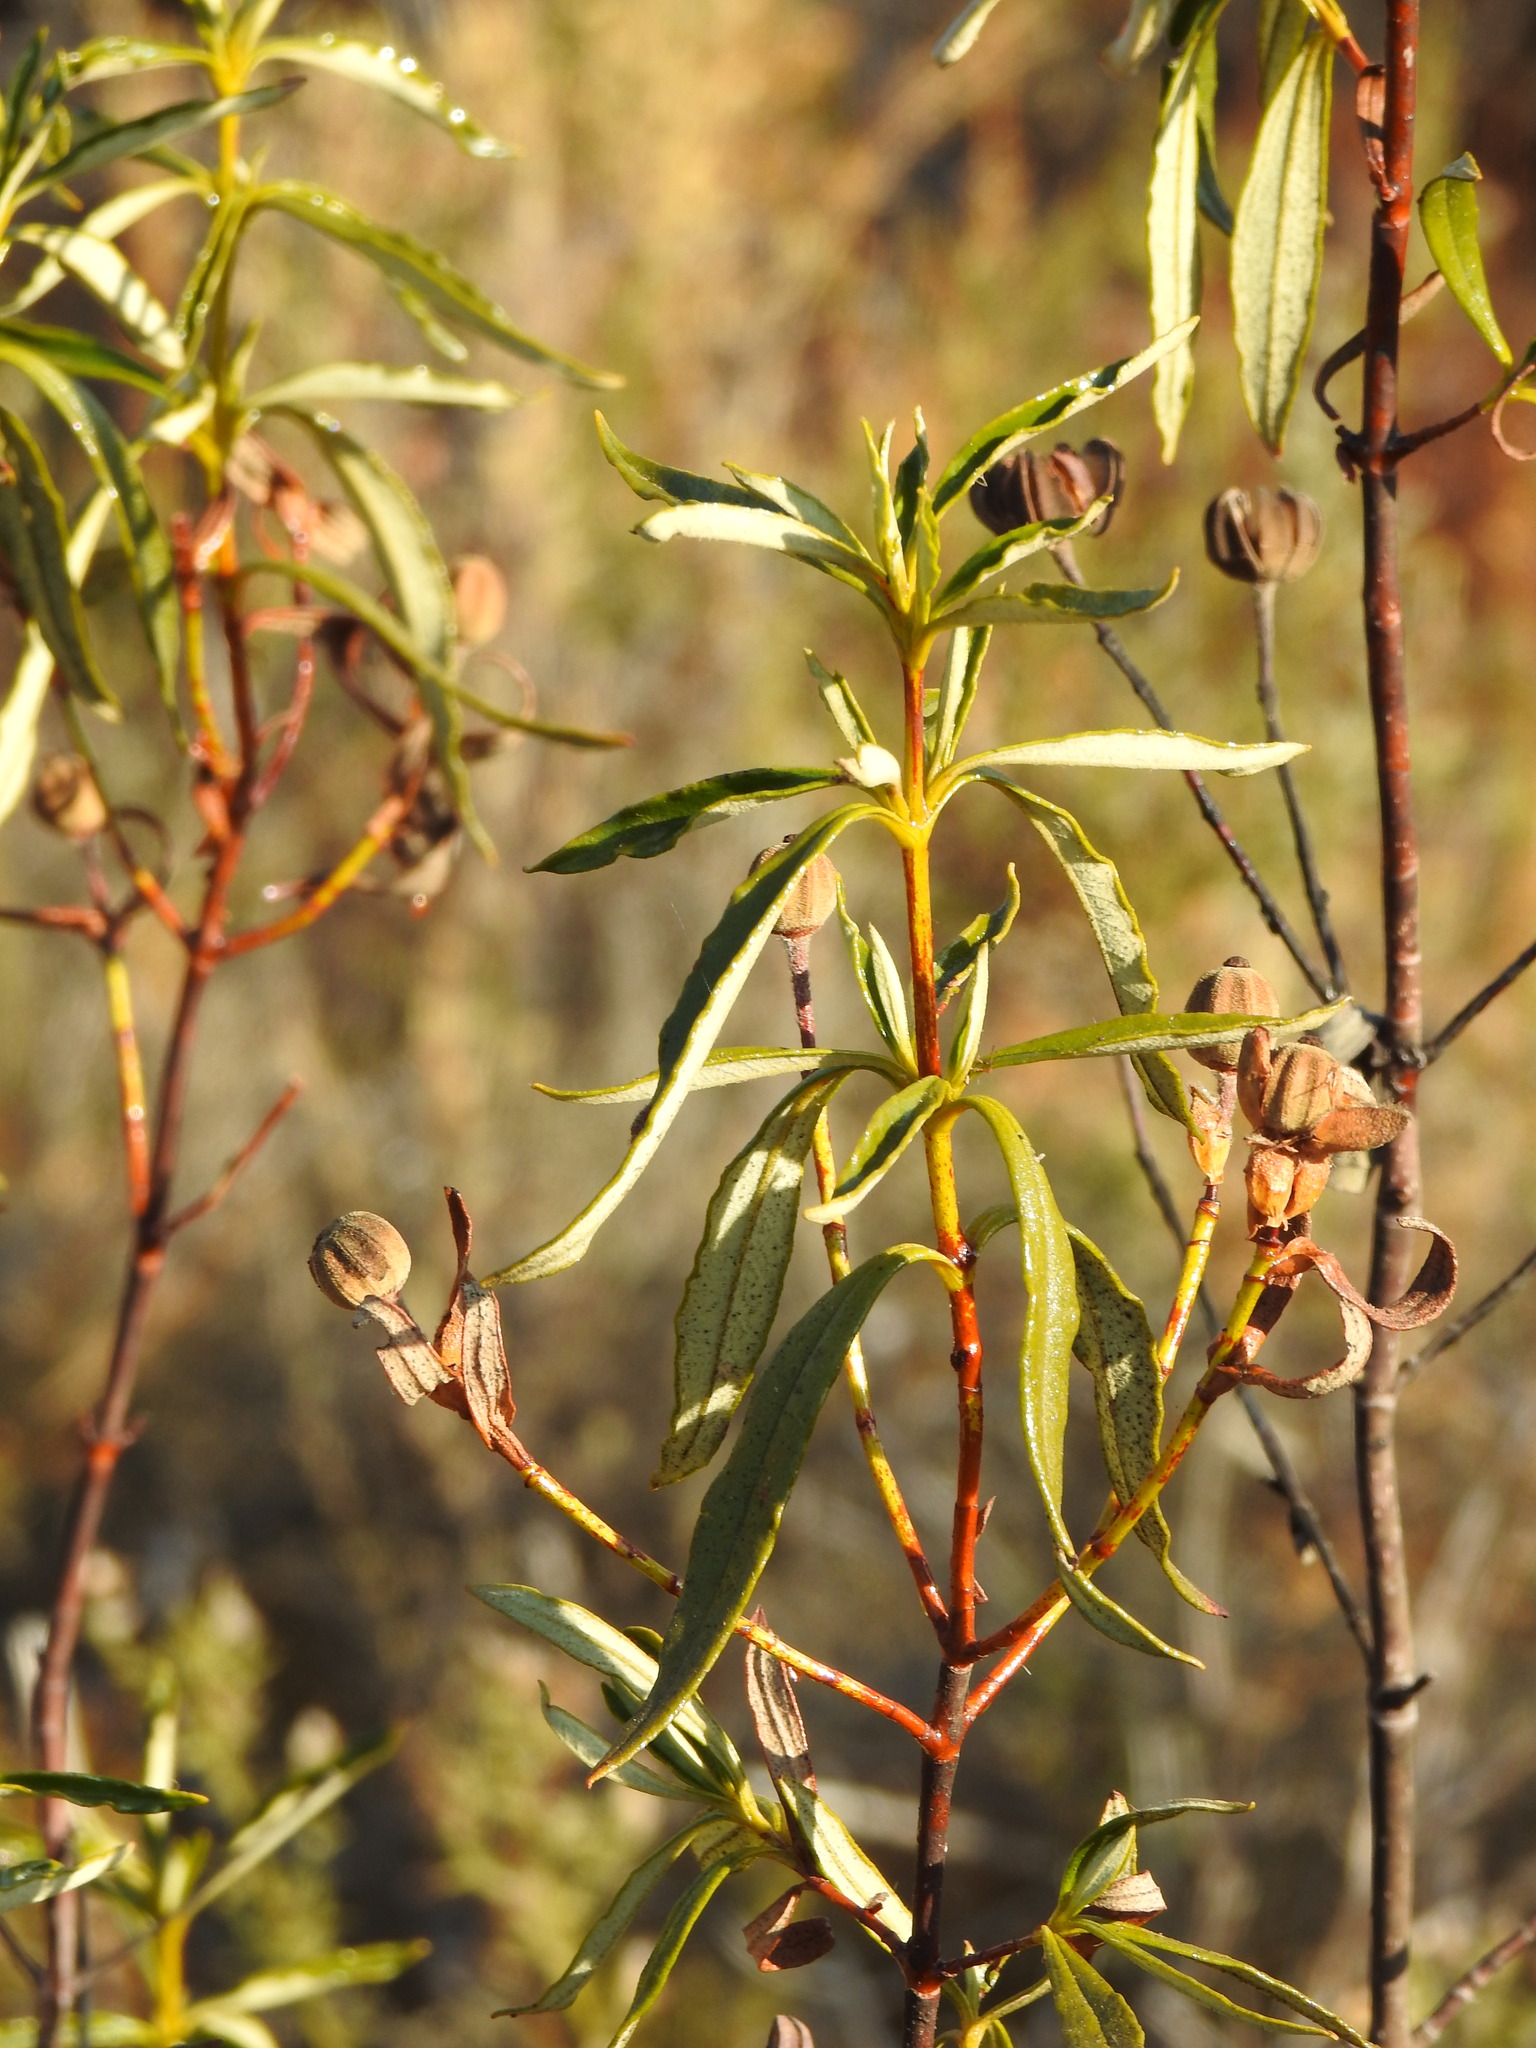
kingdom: Plantae
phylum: Tracheophyta
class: Magnoliopsida
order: Malvales
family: Cistaceae
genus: Cistus
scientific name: Cistus ladanifer
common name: Common gum cistus
